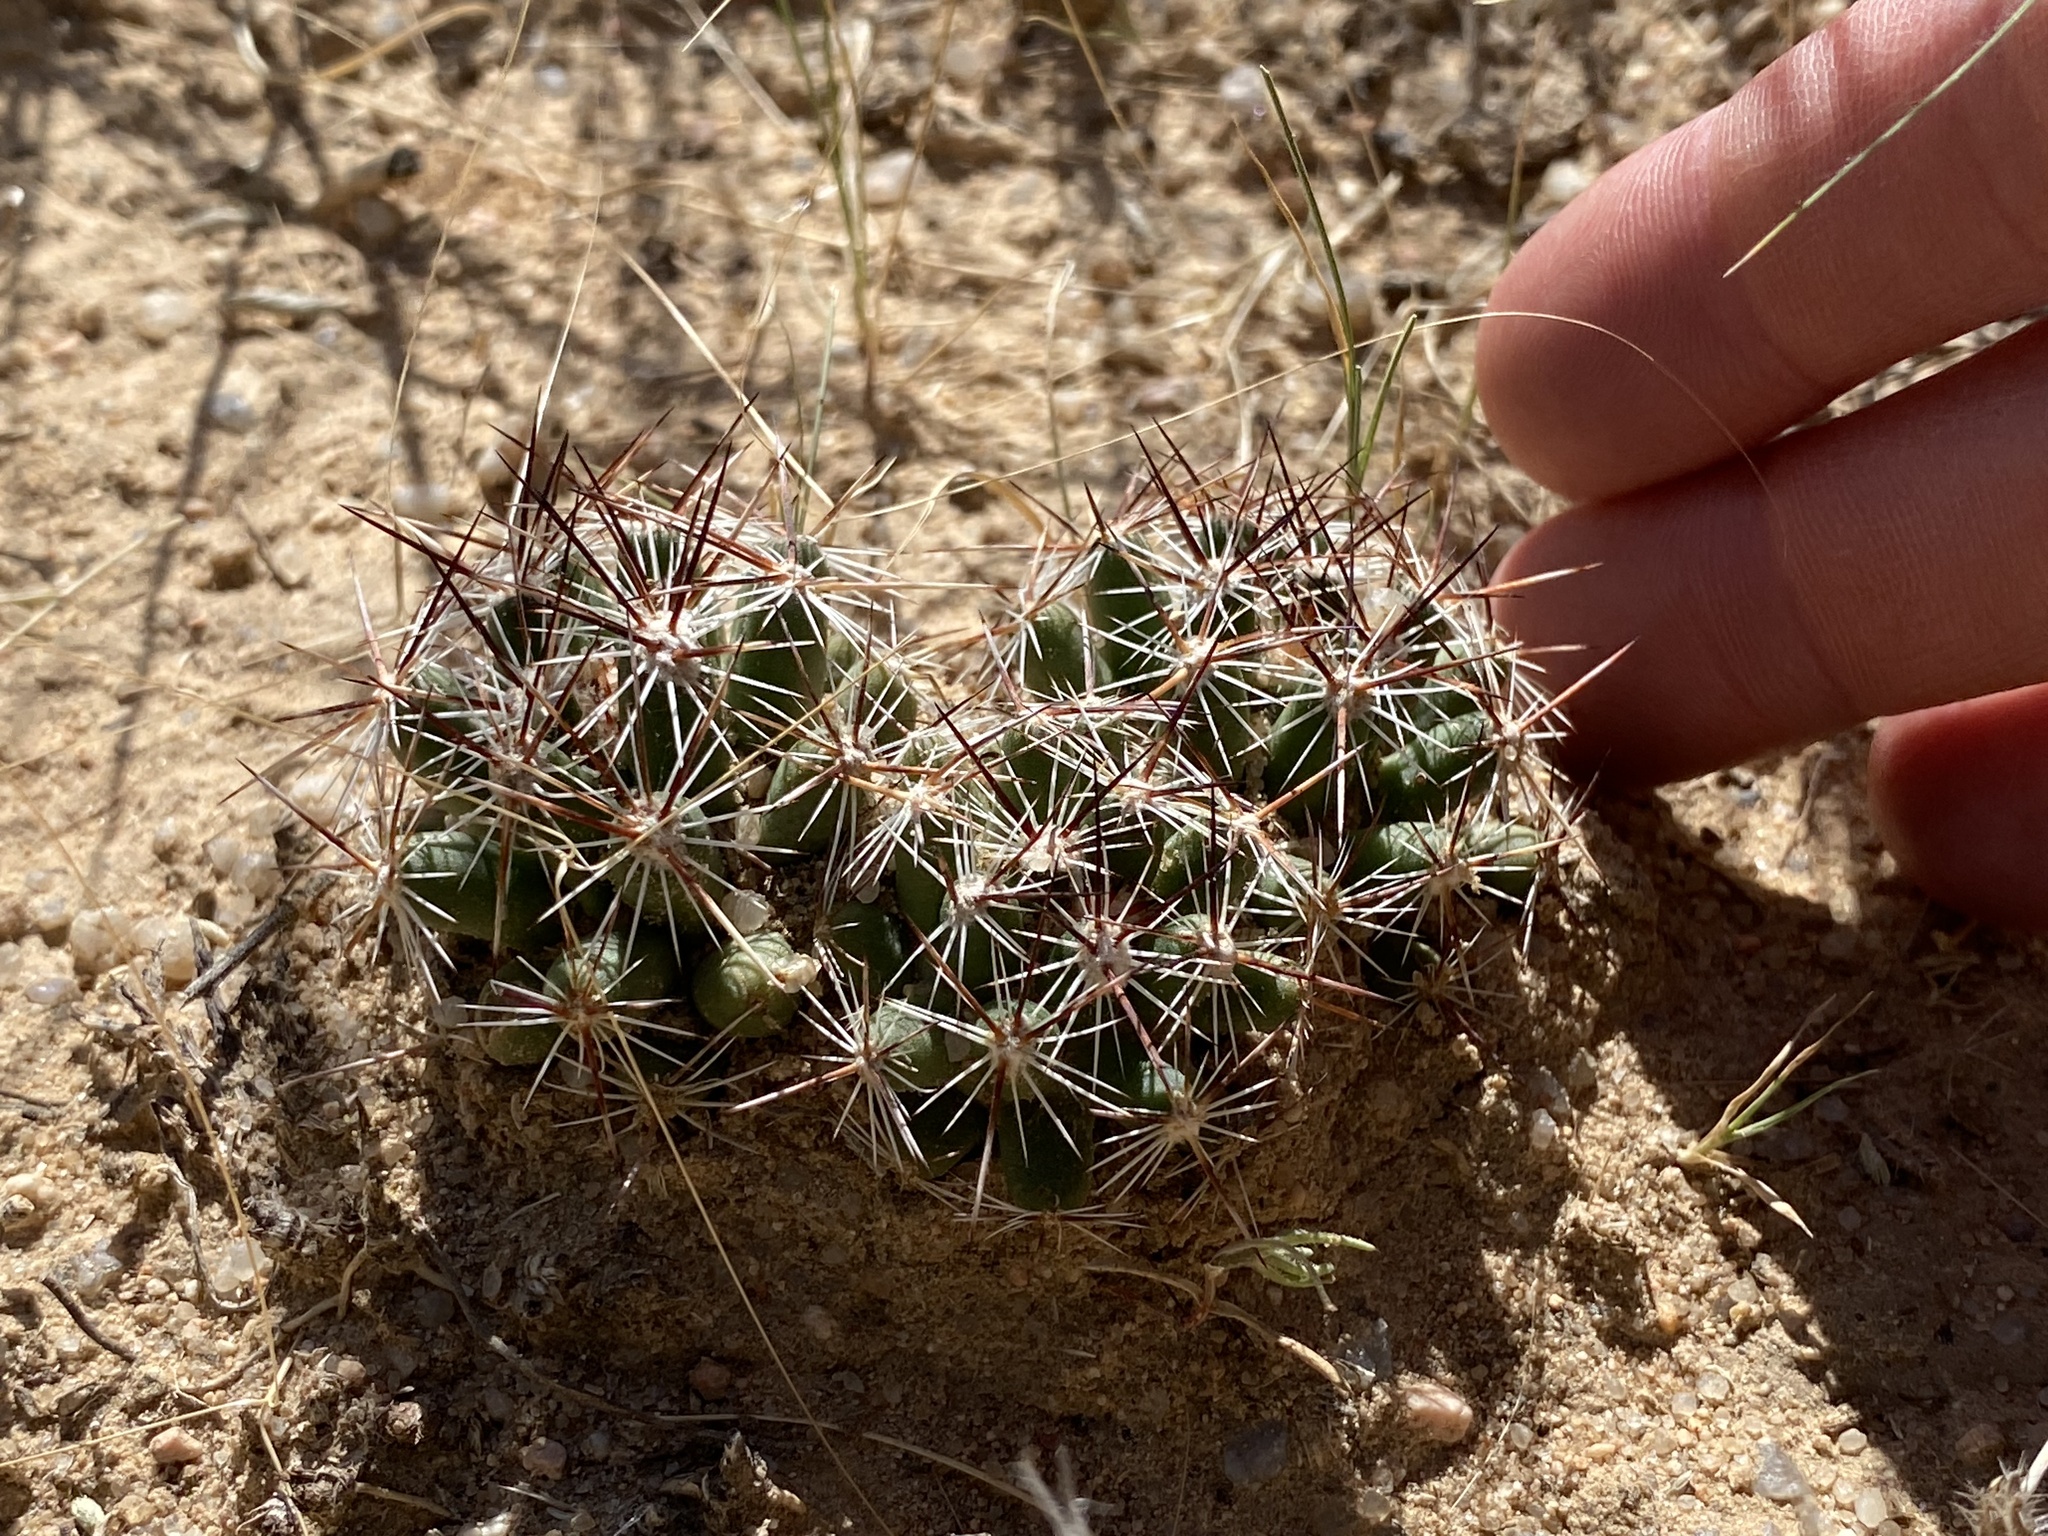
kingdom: Plantae
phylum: Tracheophyta
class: Magnoliopsida
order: Caryophyllales
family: Cactaceae
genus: Pelecyphora
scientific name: Pelecyphora vivipara
